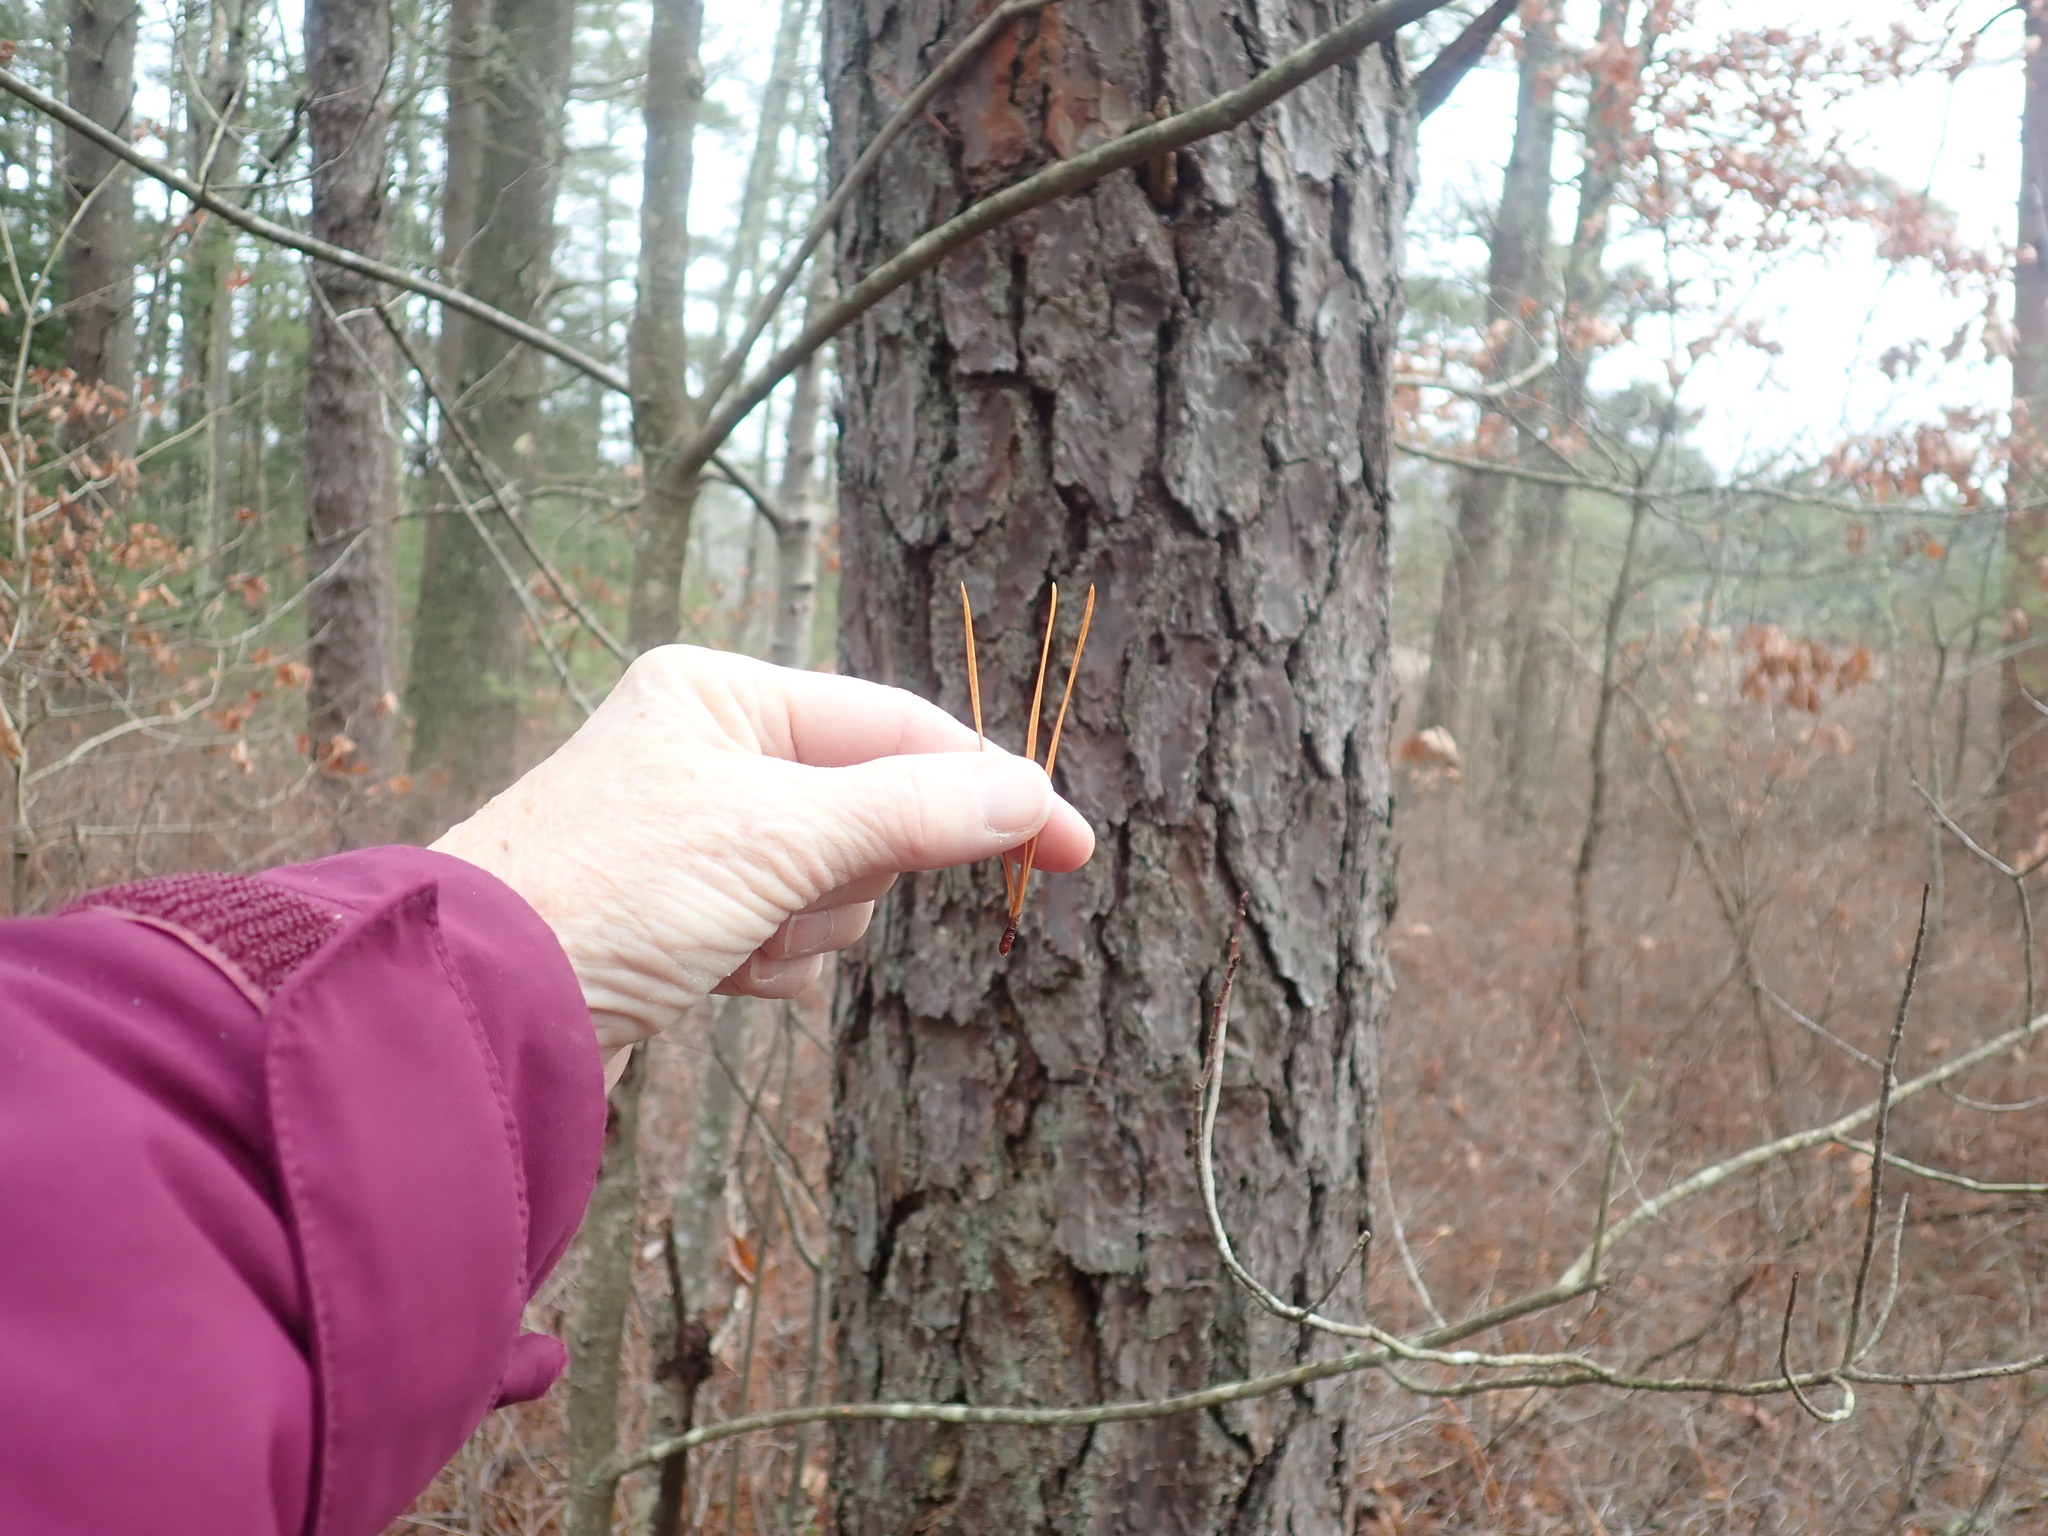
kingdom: Plantae
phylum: Tracheophyta
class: Pinopsida
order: Pinales
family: Pinaceae
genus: Pinus
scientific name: Pinus rigida
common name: Pitch pine
